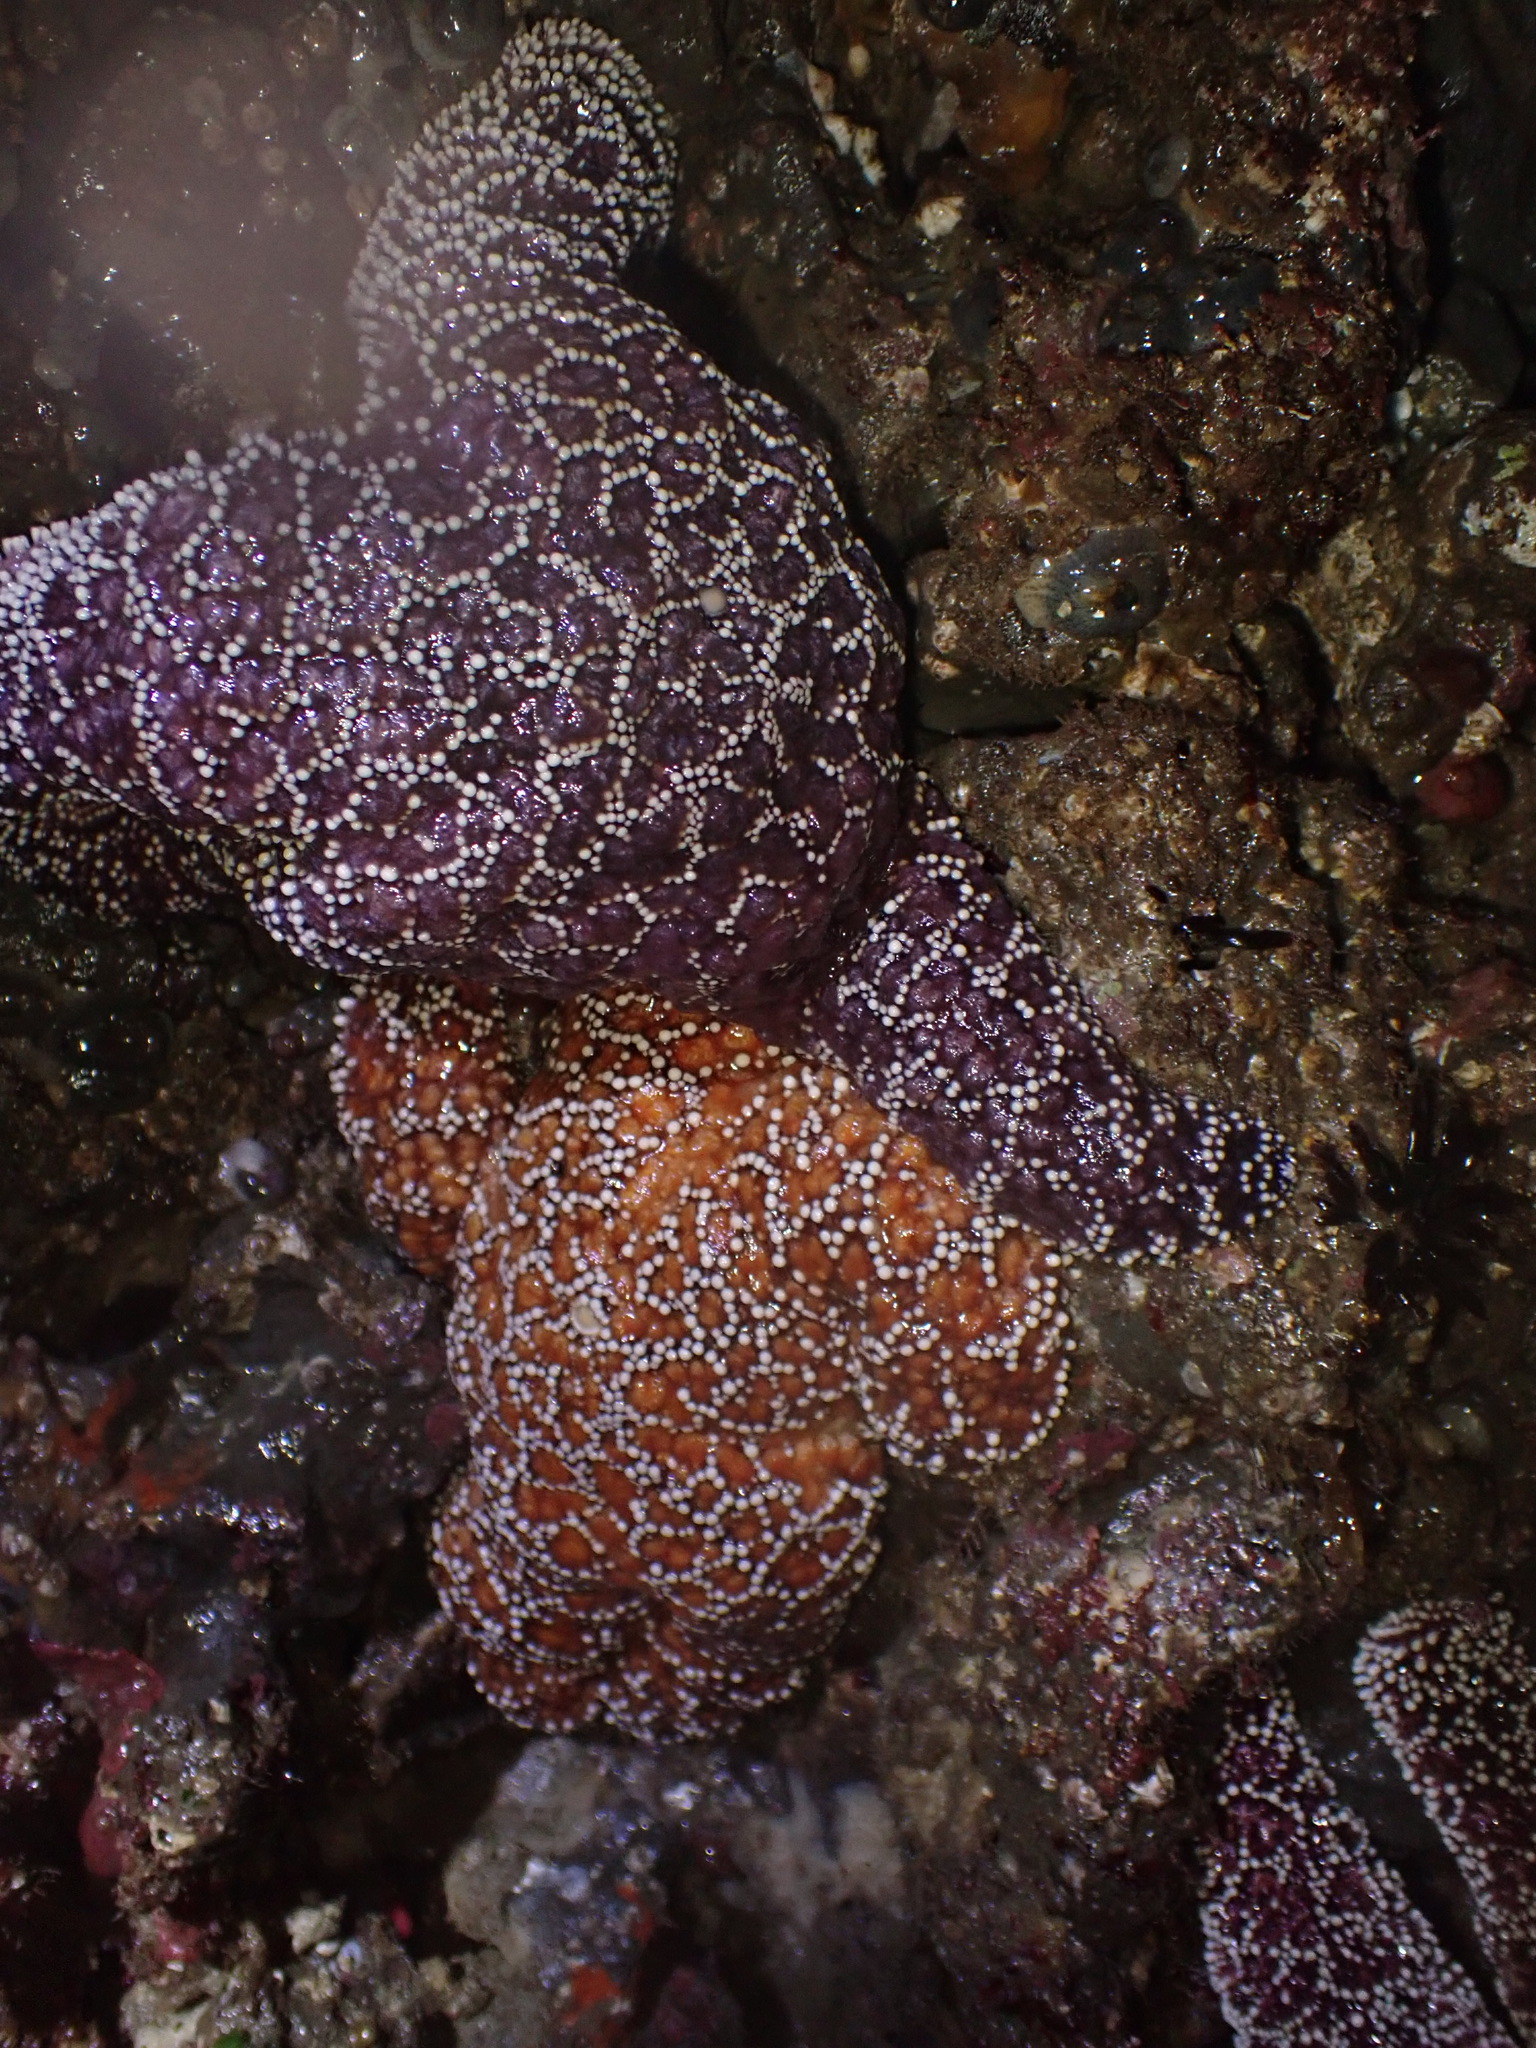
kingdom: Animalia
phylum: Echinodermata
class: Asteroidea
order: Forcipulatida
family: Asteriidae
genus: Pisaster
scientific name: Pisaster ochraceus
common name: Ochre stars
